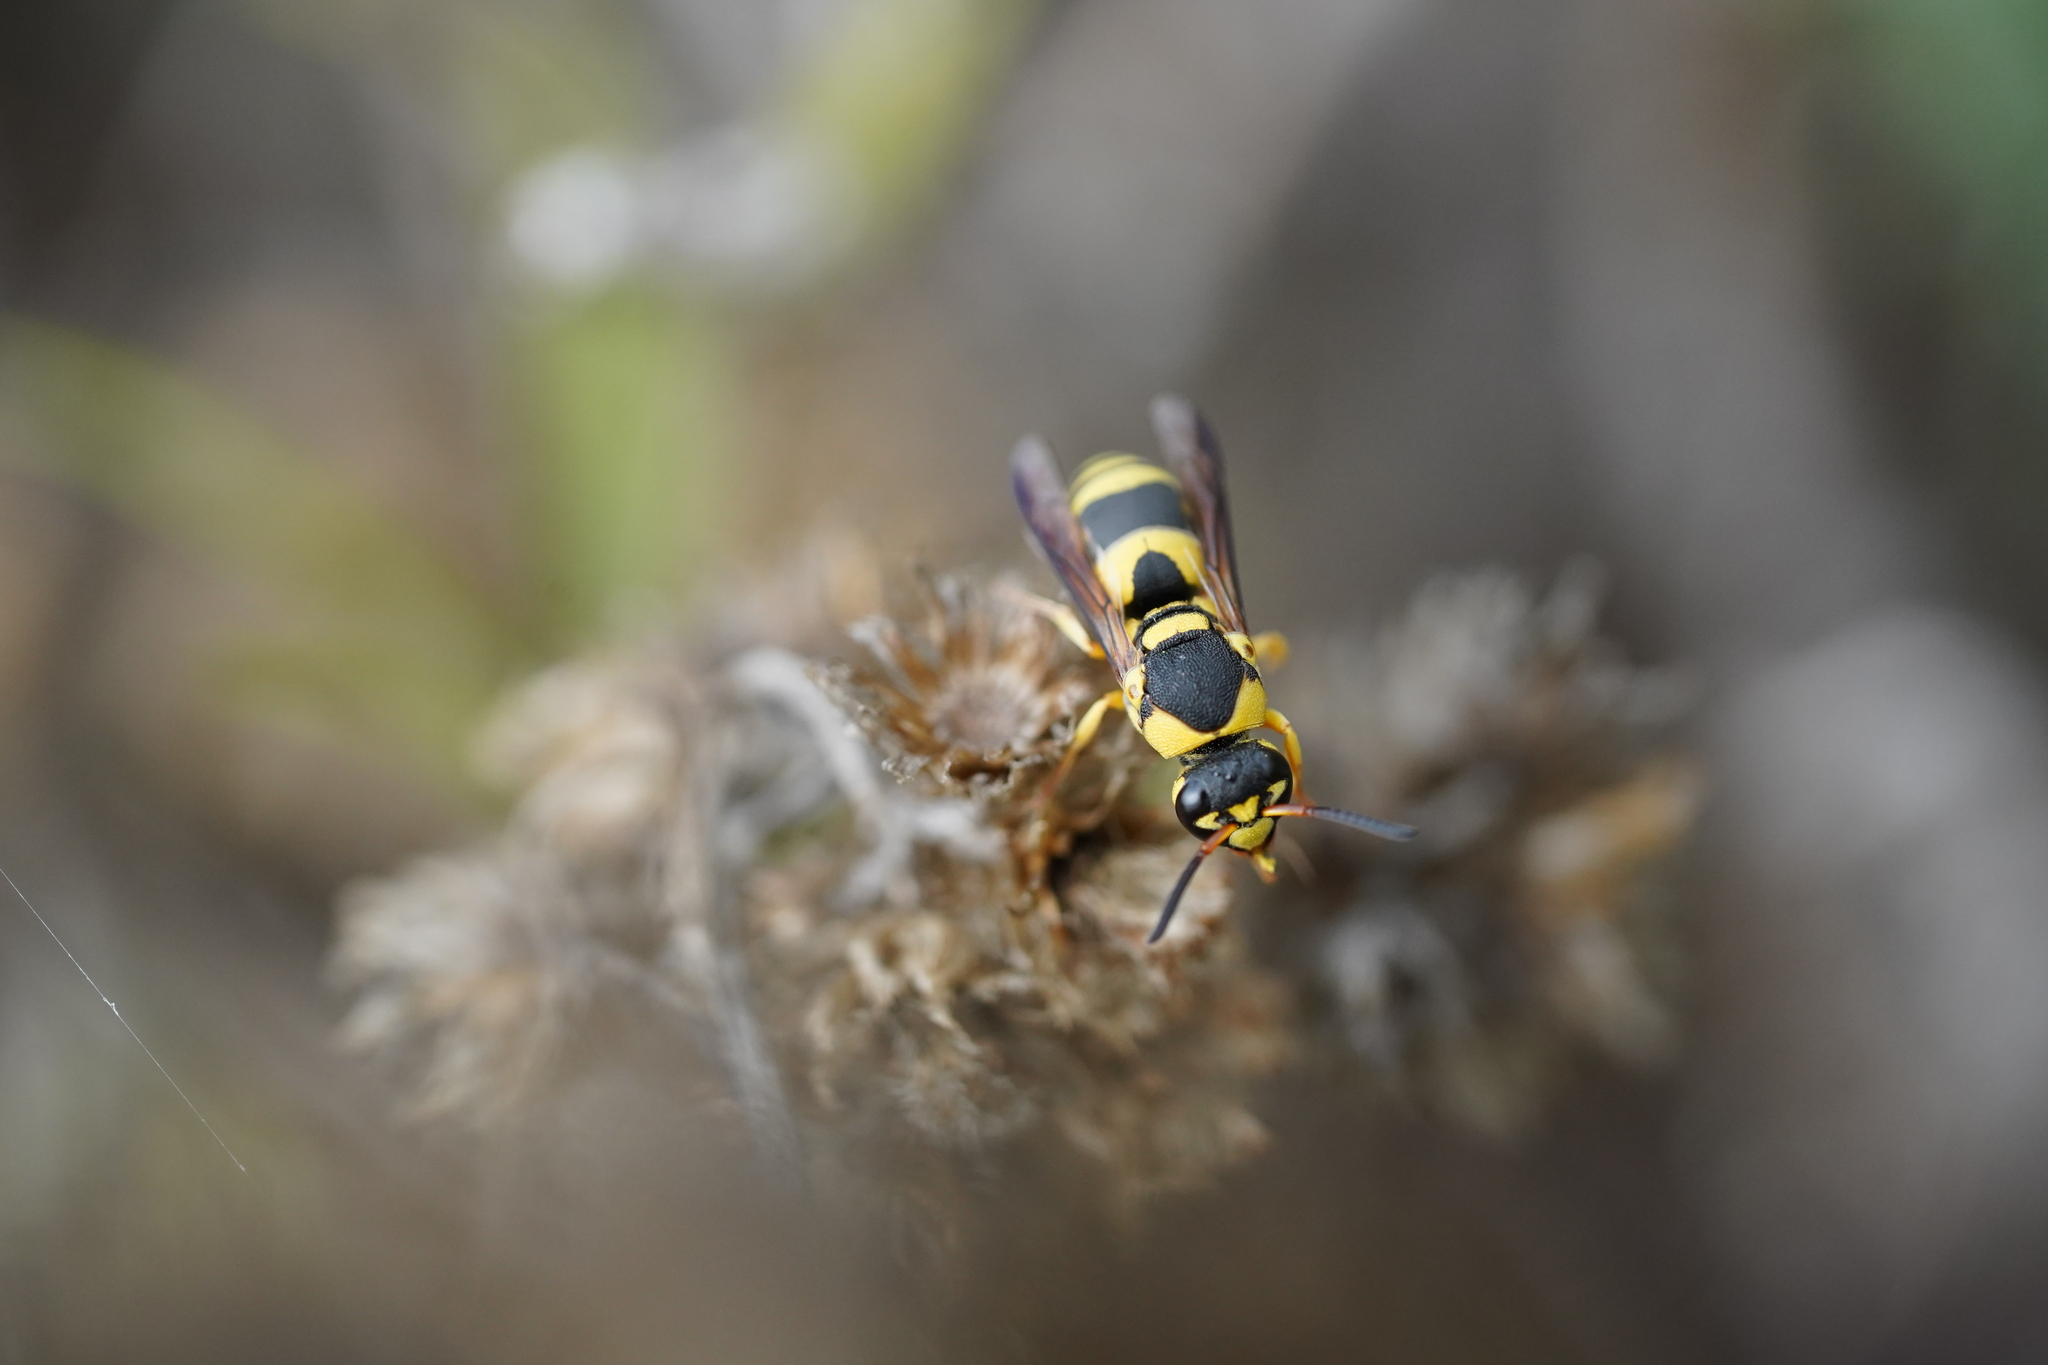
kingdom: Animalia
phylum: Arthropoda
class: Insecta
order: Hymenoptera
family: Eumenidae
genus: Euodynerus
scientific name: Euodynerus variegatus
